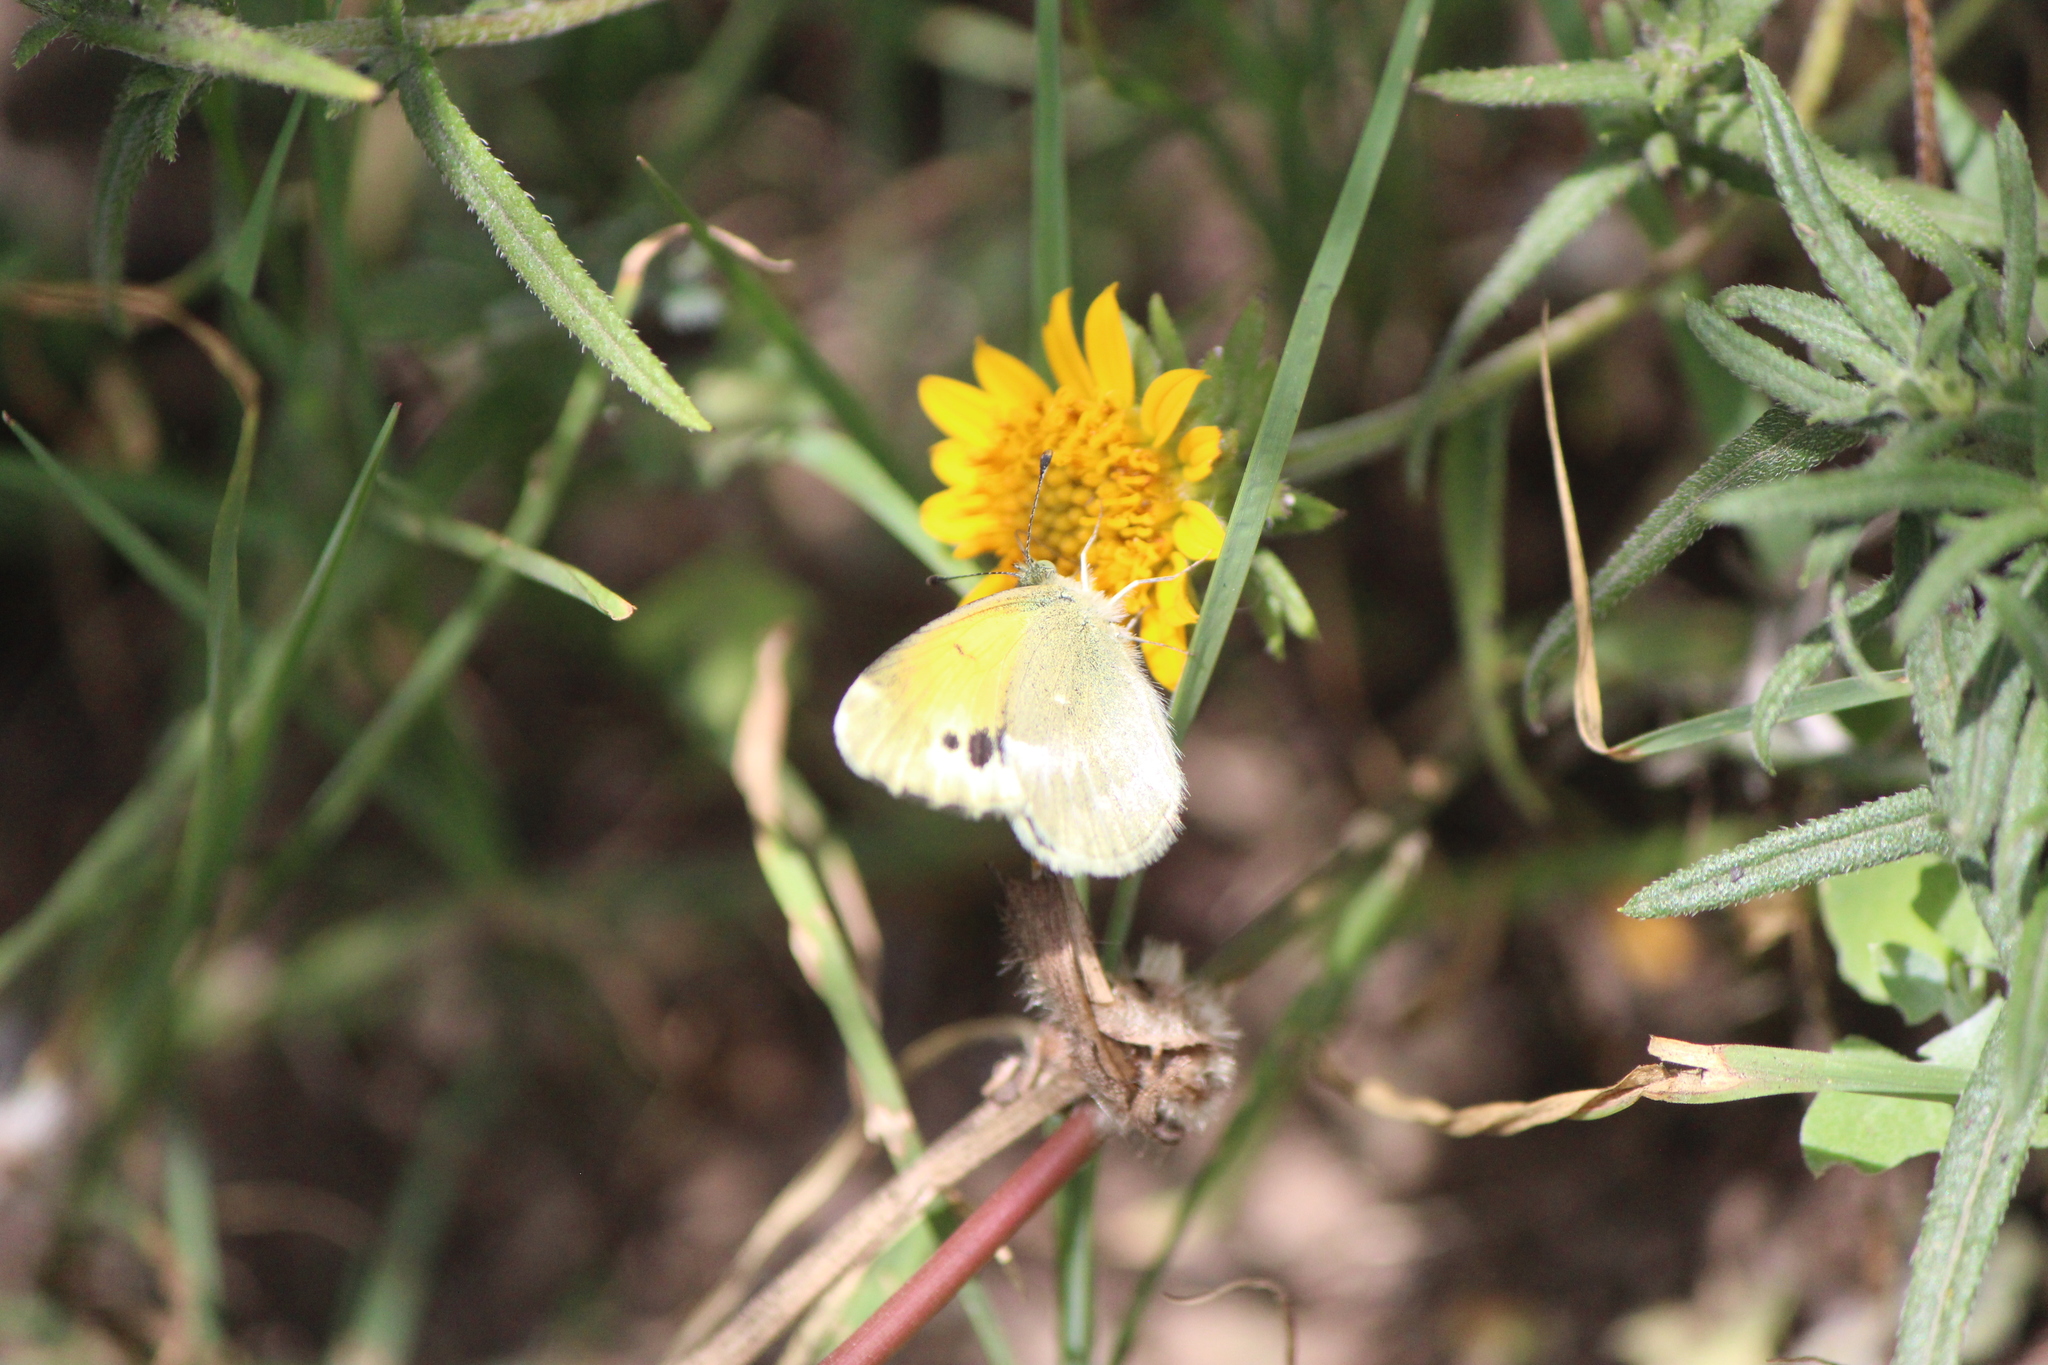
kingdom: Animalia
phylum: Arthropoda
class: Insecta
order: Lepidoptera
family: Pieridae
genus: Nathalis
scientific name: Nathalis iole
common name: Dainty sulphur
